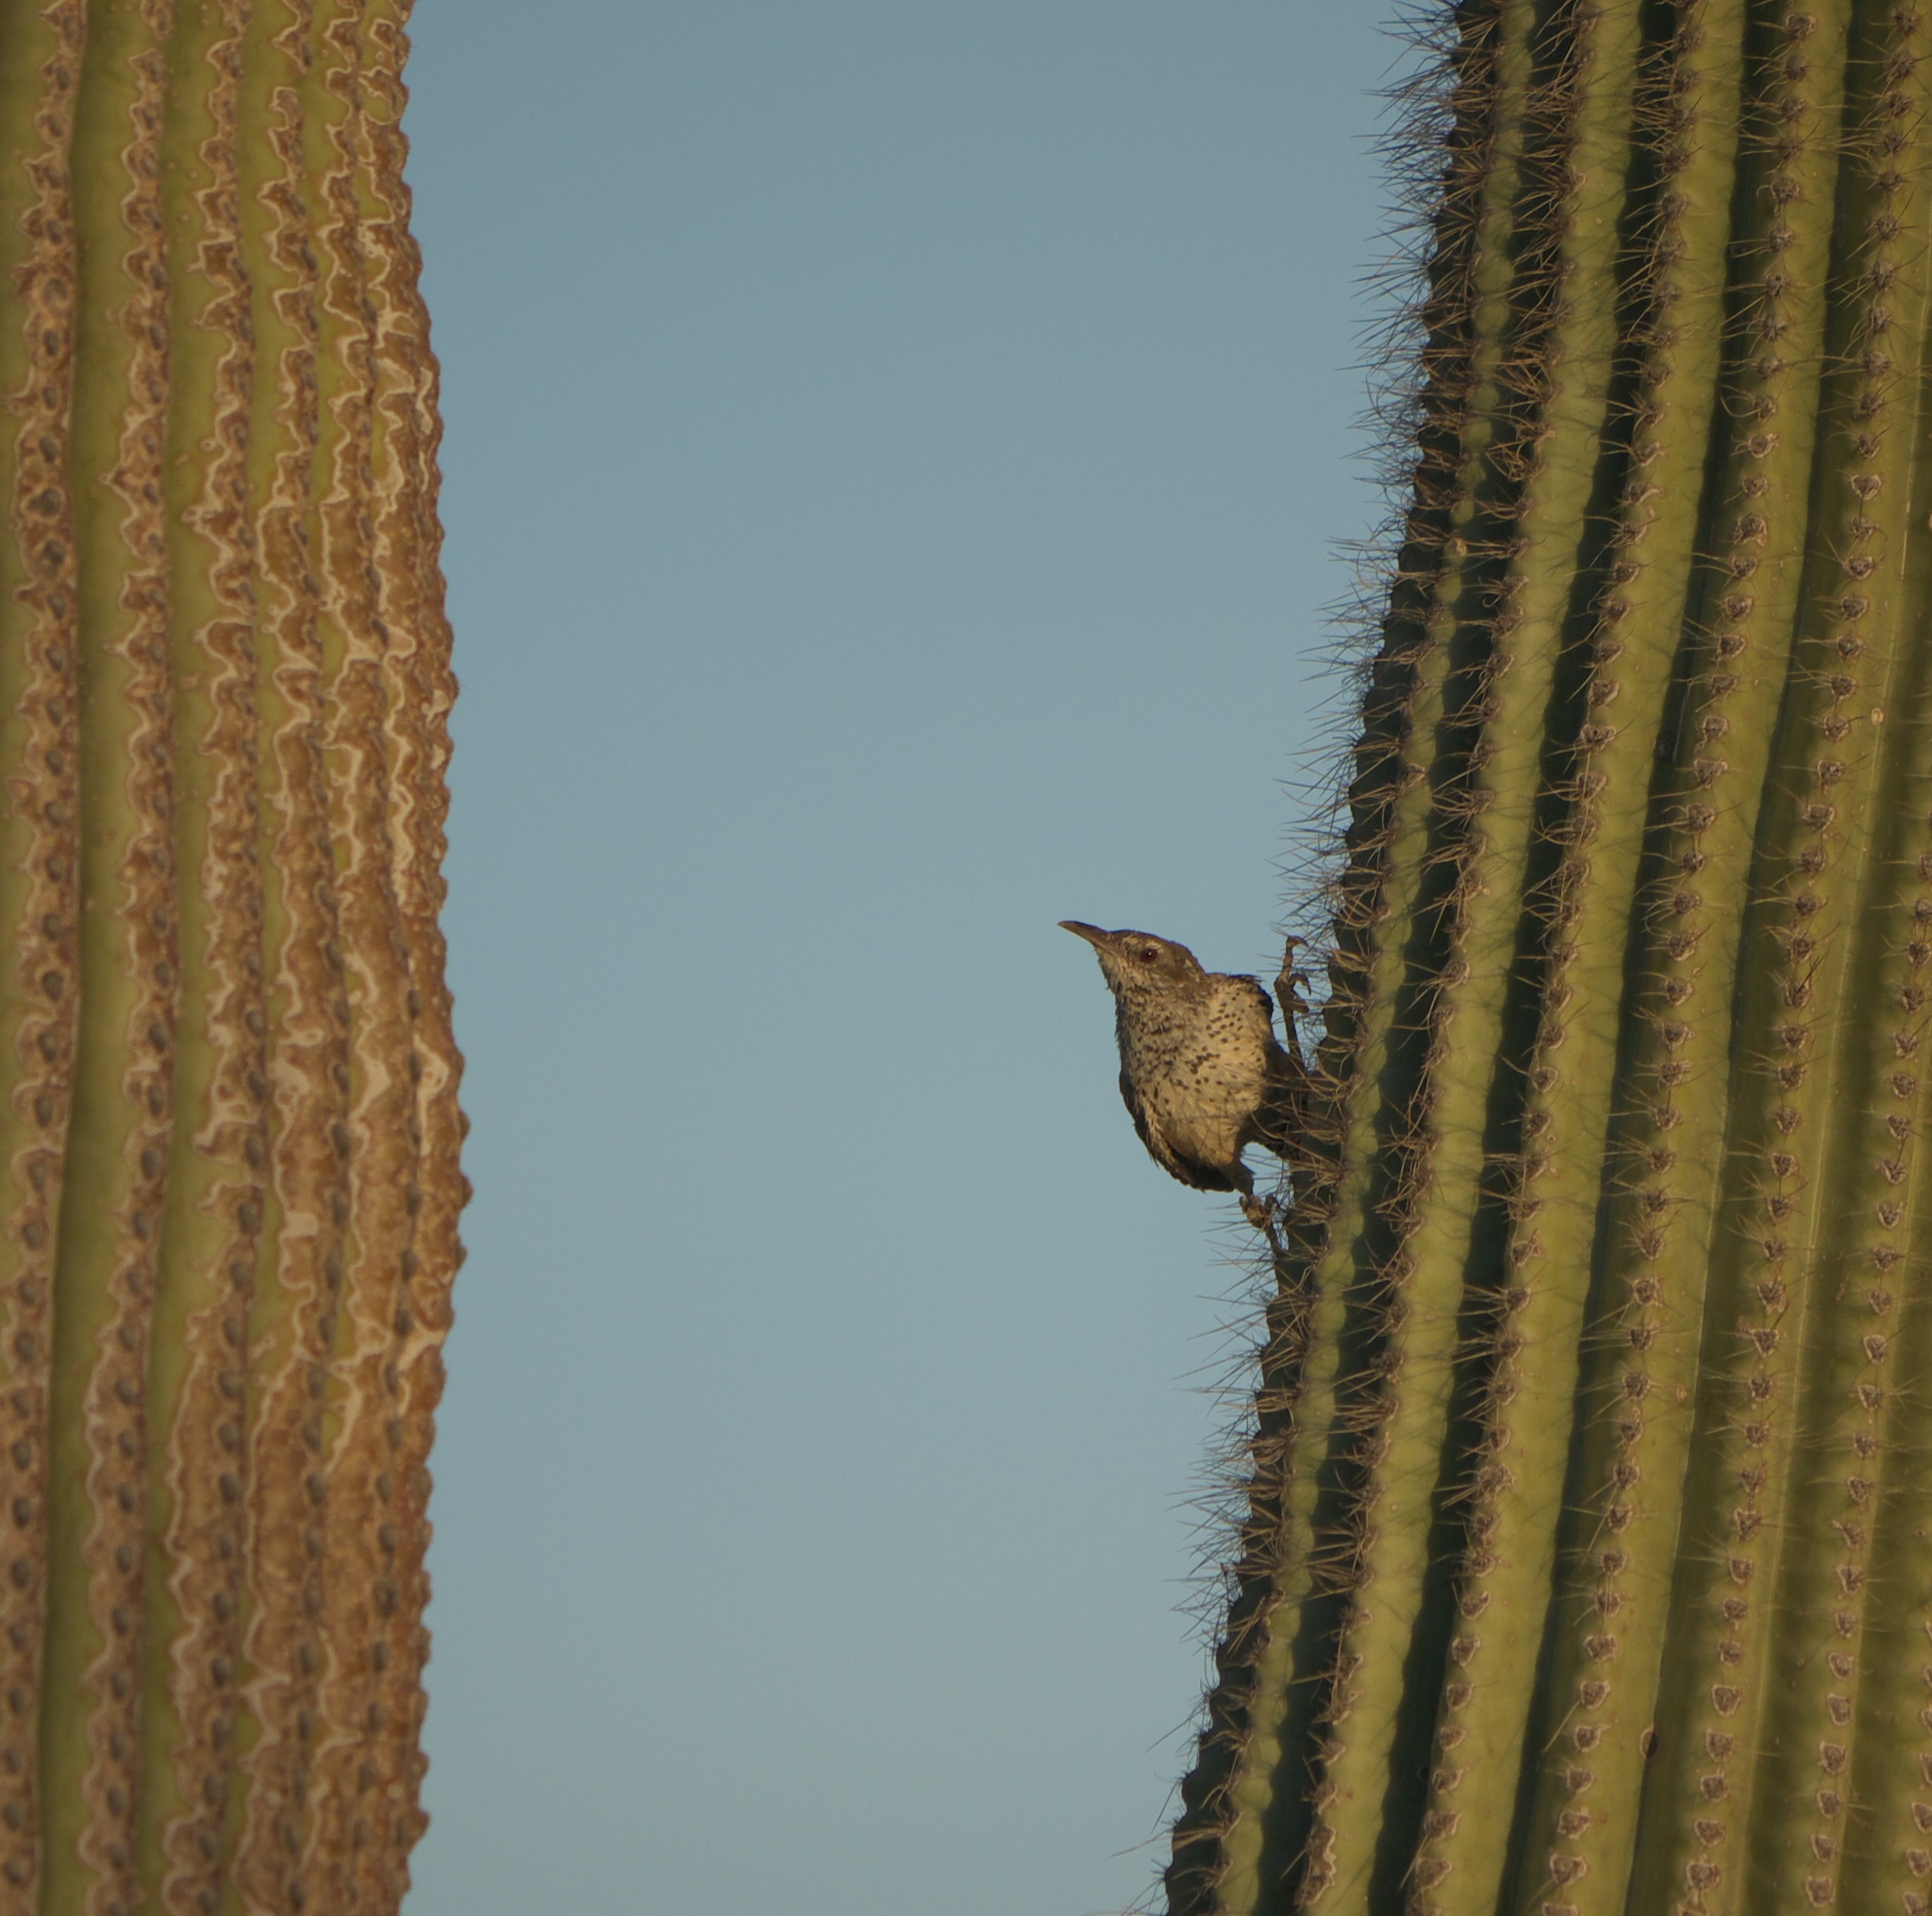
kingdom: Animalia
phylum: Chordata
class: Aves
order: Passeriformes
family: Troglodytidae
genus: Campylorhynchus
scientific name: Campylorhynchus brunneicapillus
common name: Cactus wren
